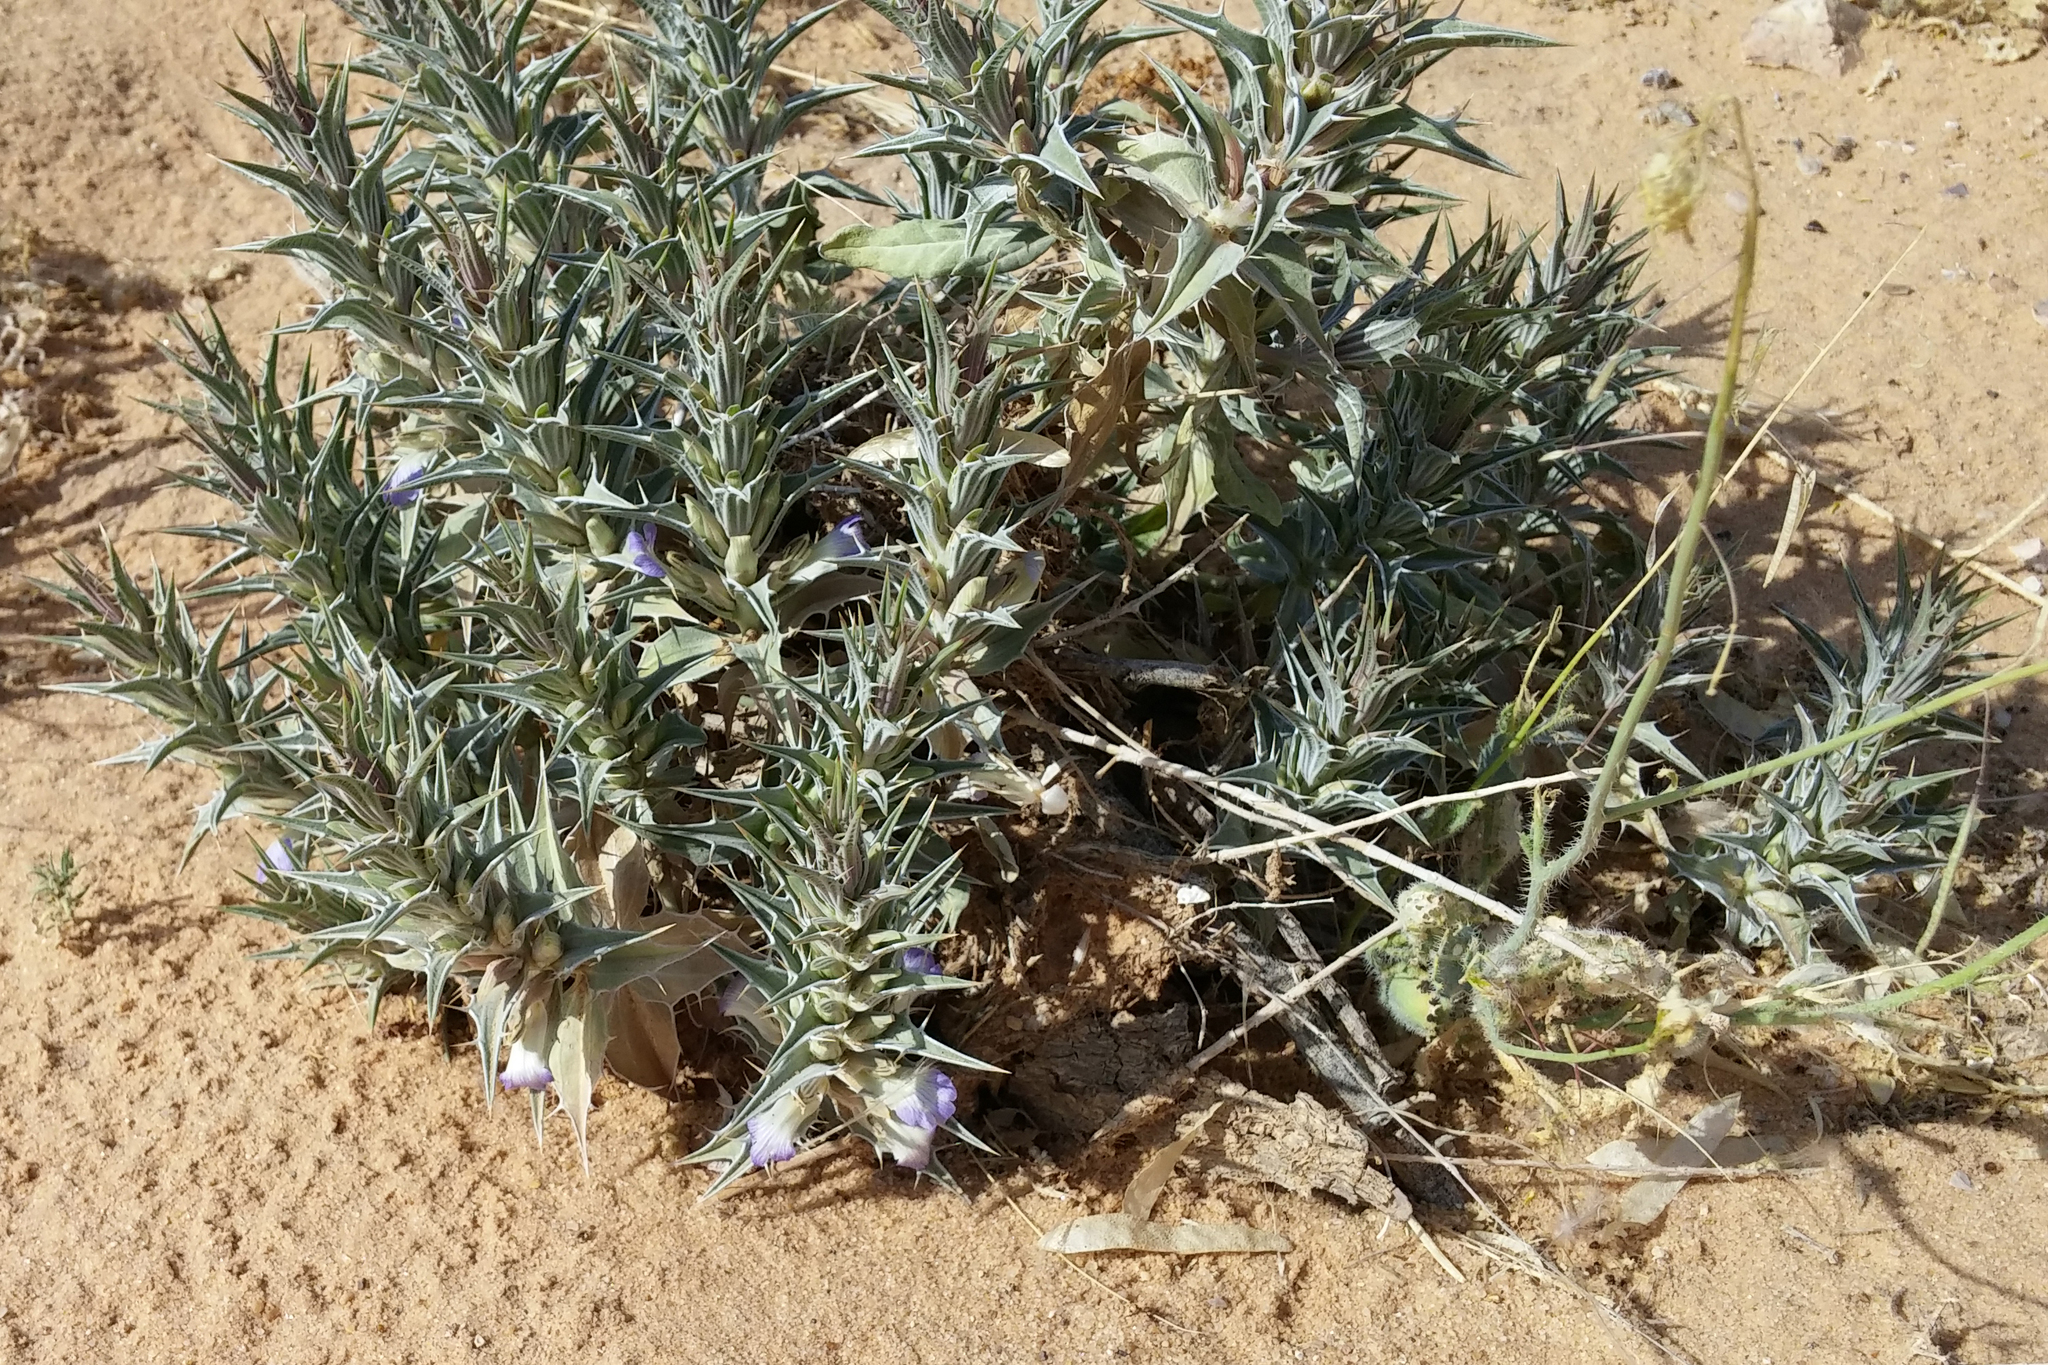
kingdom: Plantae
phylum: Tracheophyta
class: Magnoliopsida
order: Lamiales
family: Acanthaceae
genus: Blepharis
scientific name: Blepharis attenuata
